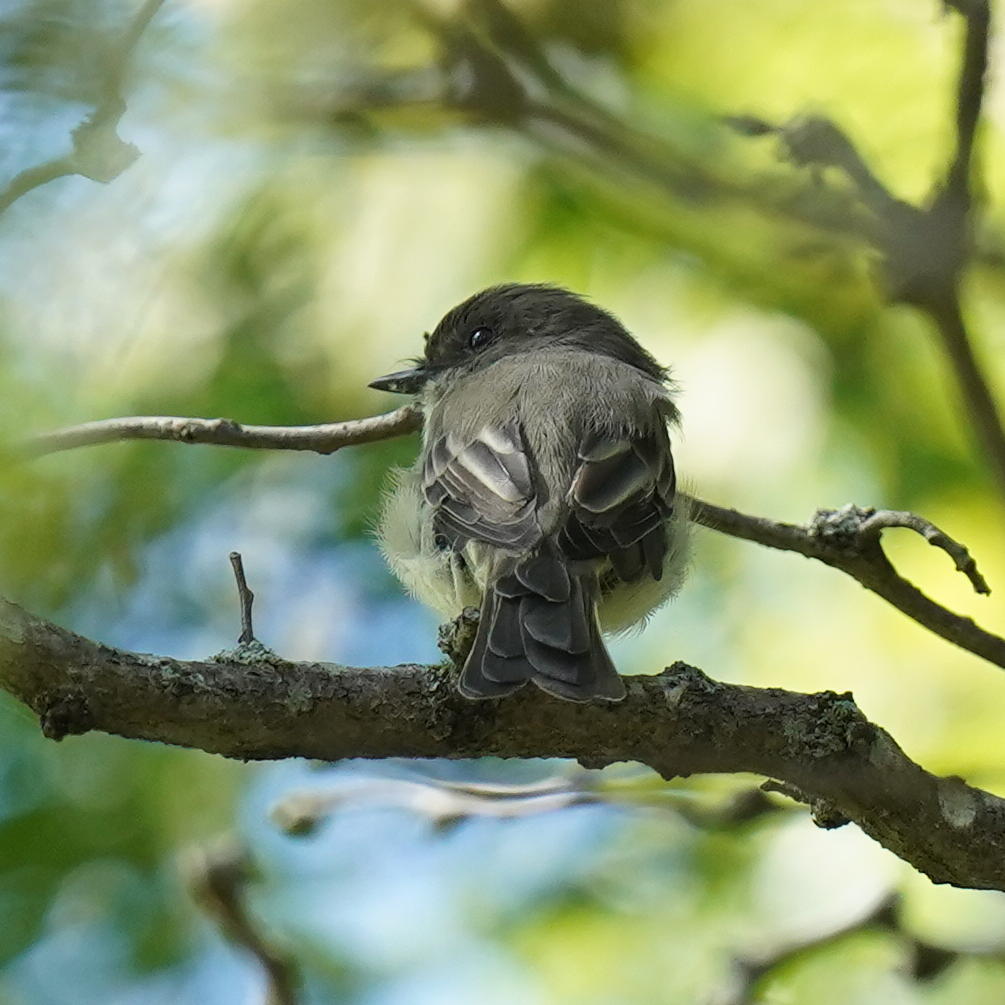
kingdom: Animalia
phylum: Chordata
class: Aves
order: Passeriformes
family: Tyrannidae
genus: Sayornis
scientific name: Sayornis phoebe
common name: Eastern phoebe
